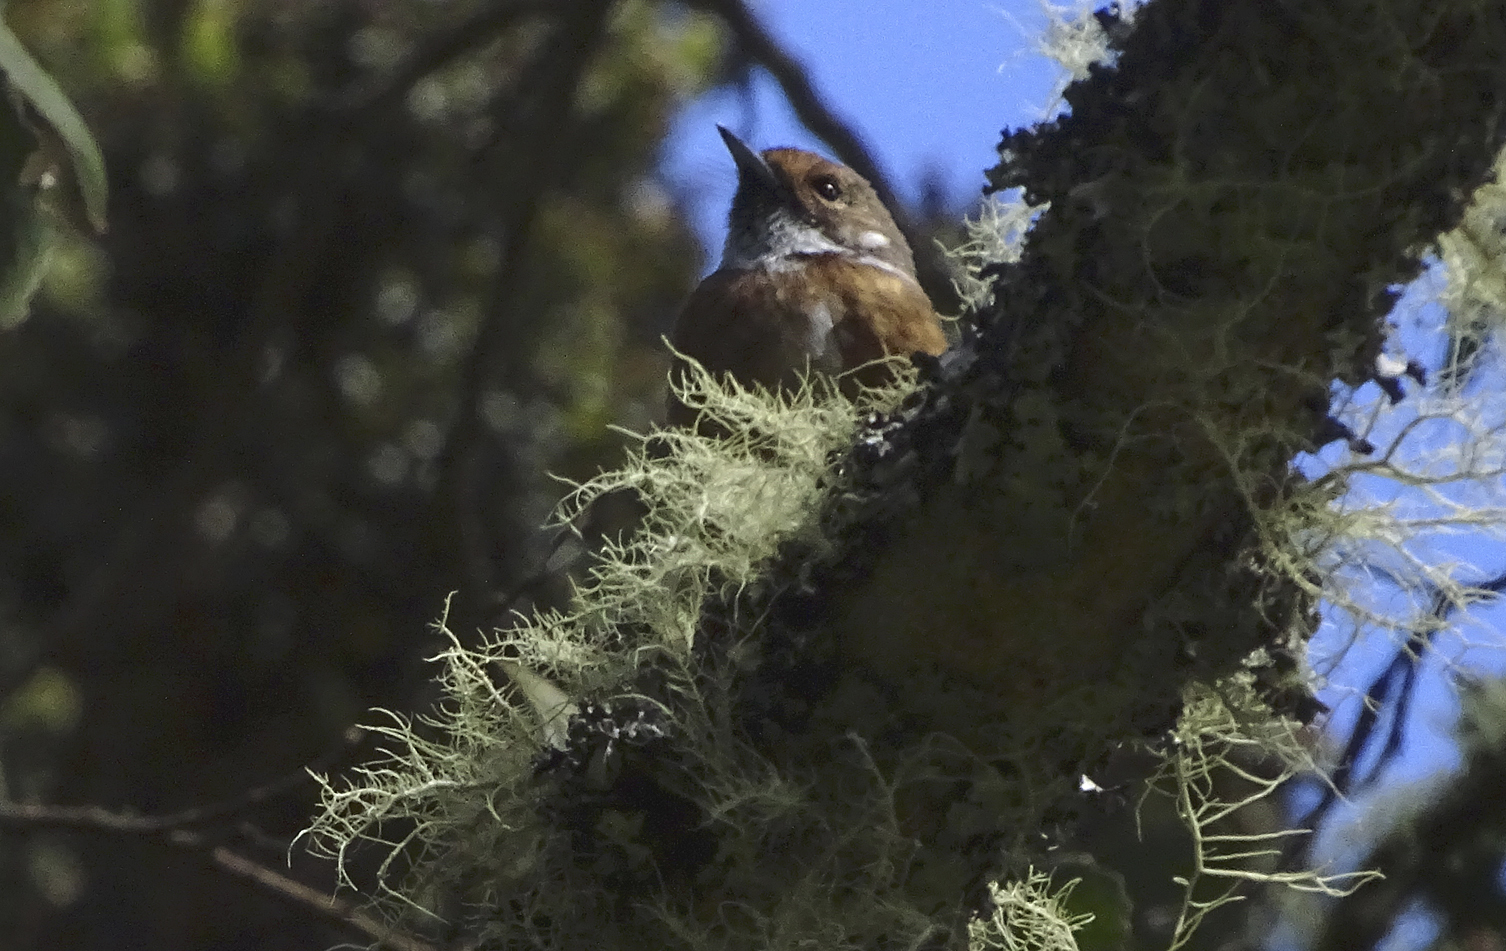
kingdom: Animalia
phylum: Chordata
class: Aves
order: Passeriformes
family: Monarchidae
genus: Chasiempis
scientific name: Chasiempis sandwichensis
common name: Hawaii elepaio
